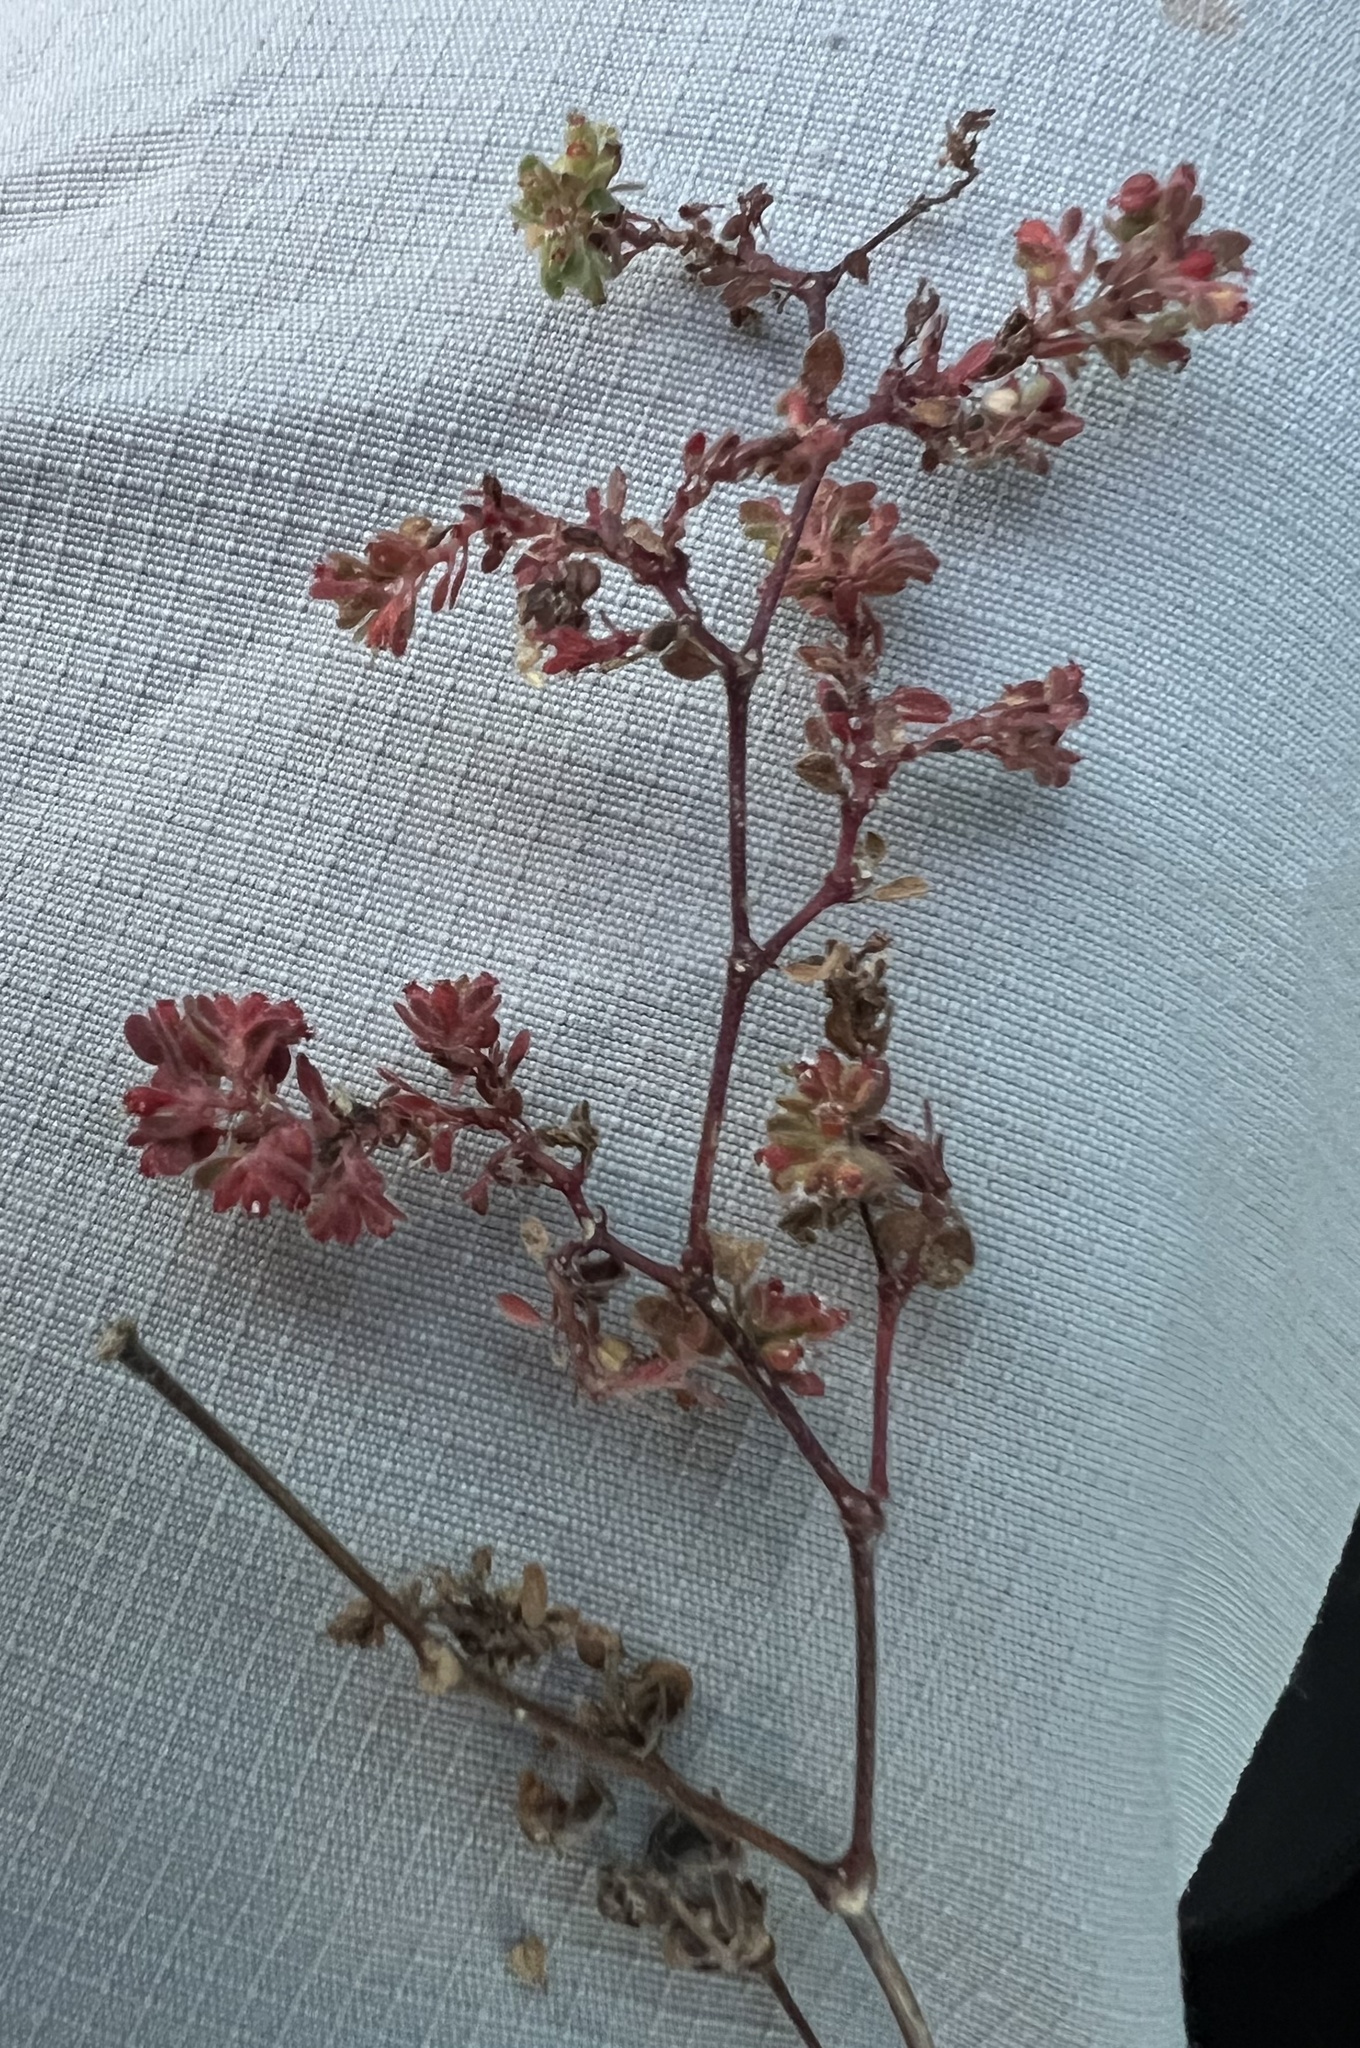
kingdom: Plantae
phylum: Tracheophyta
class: Magnoliopsida
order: Malpighiales
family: Euphorbiaceae
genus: Euphorbia
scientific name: Euphorbia setiloba
